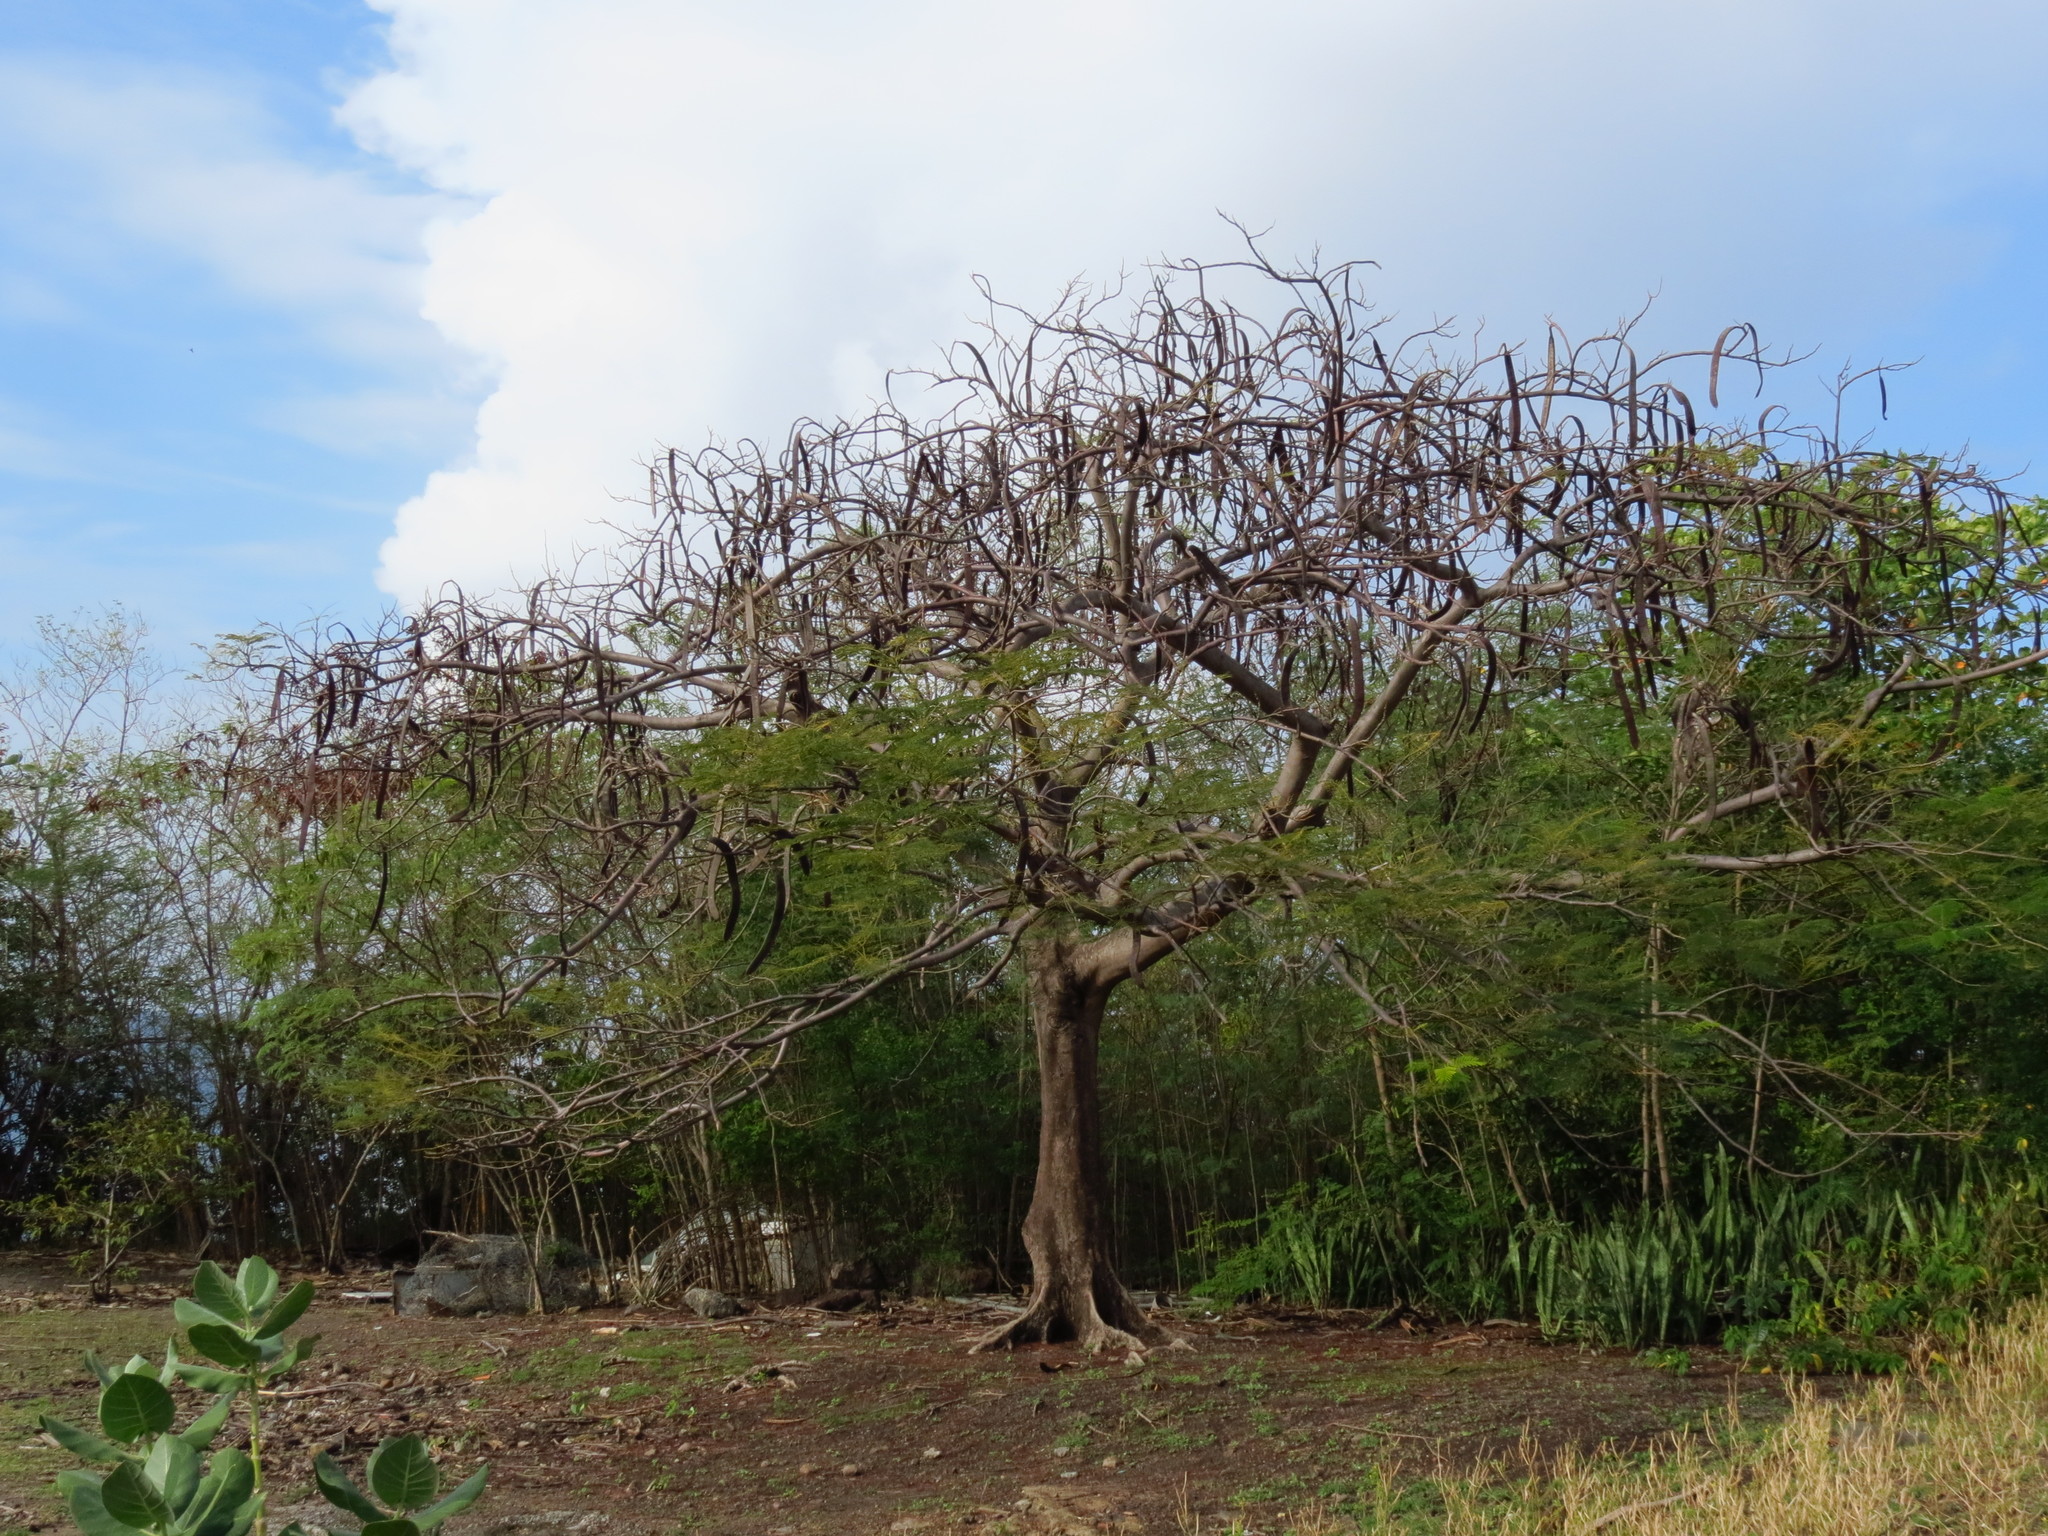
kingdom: Plantae
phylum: Tracheophyta
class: Magnoliopsida
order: Fabales
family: Fabaceae
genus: Delonix
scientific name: Delonix regia
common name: Royal poinciana
